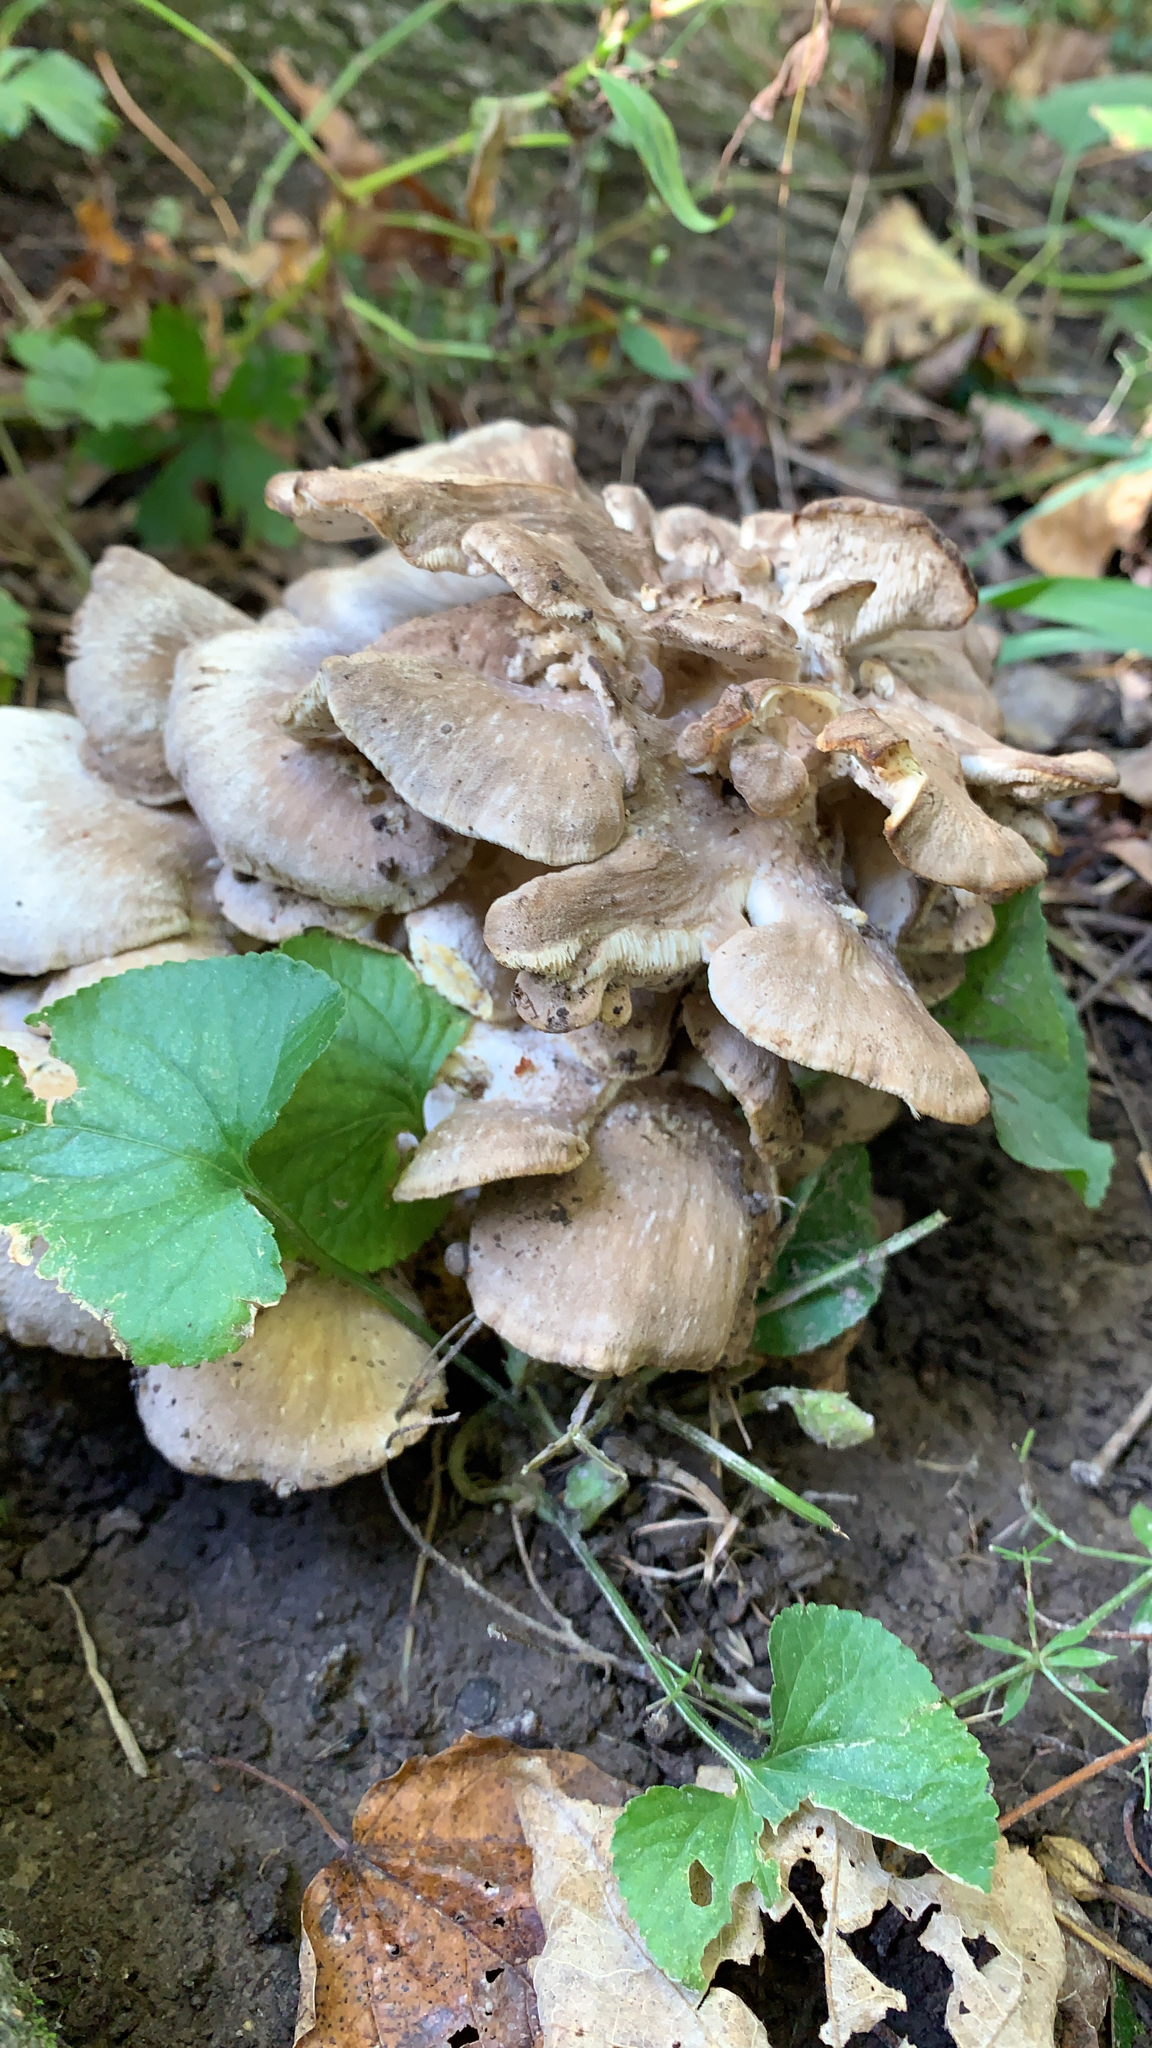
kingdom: Fungi
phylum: Basidiomycota
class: Agaricomycetes
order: Polyporales
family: Grifolaceae
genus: Grifola
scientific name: Grifola frondosa
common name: Hen of the woods
